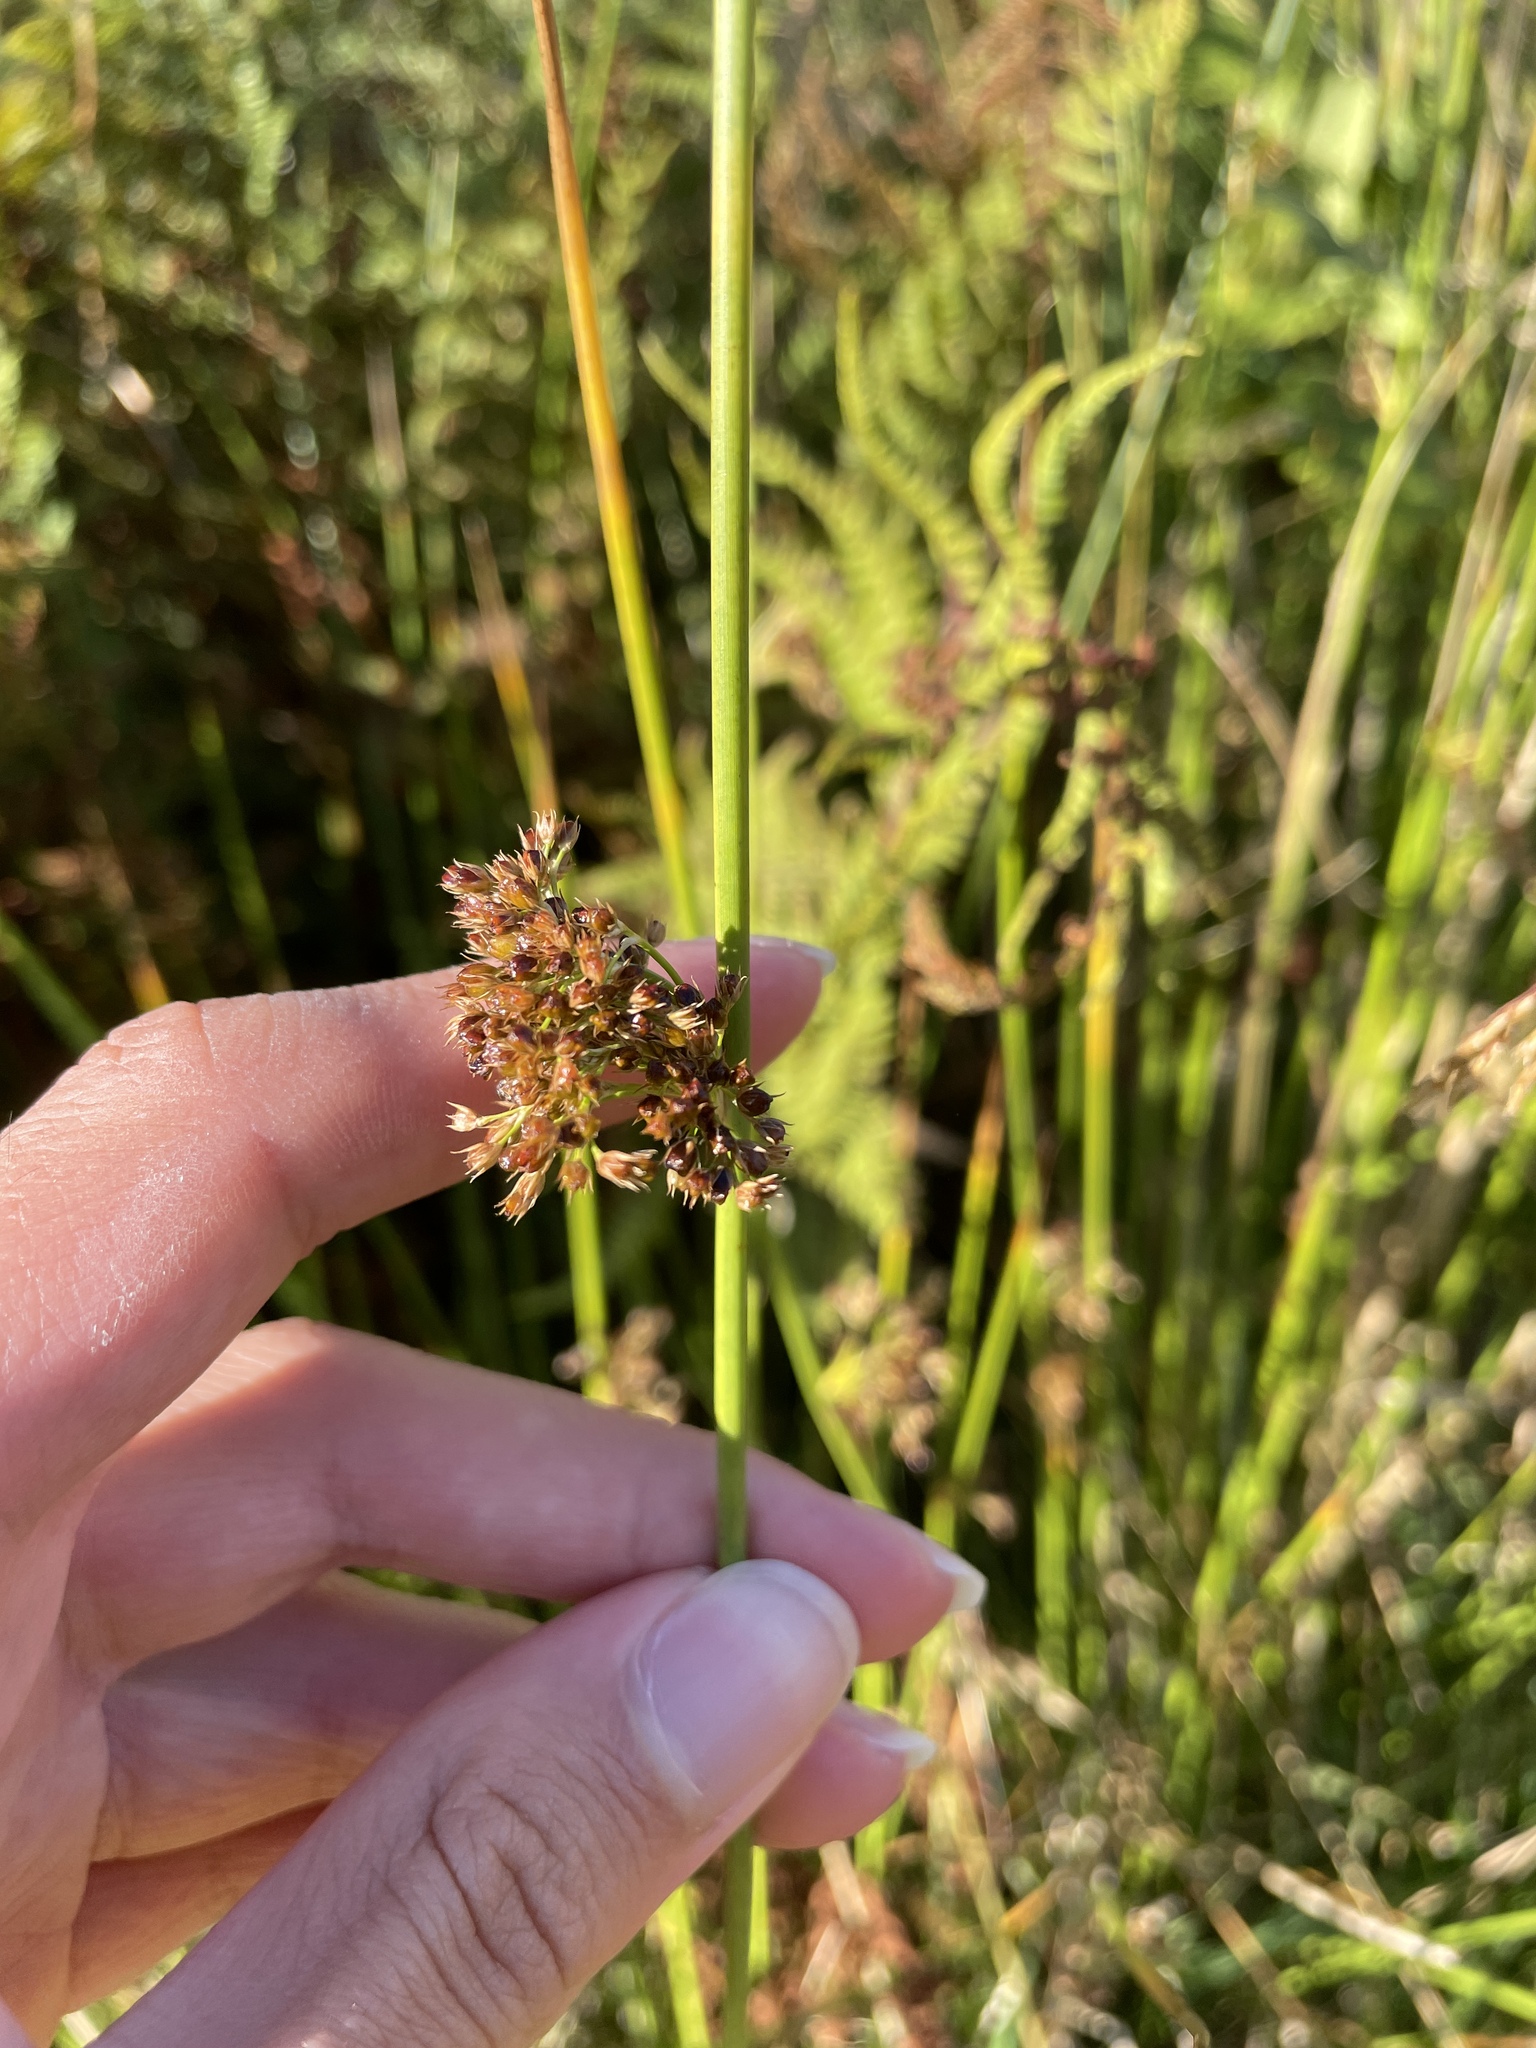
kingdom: Plantae
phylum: Tracheophyta
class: Liliopsida
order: Poales
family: Juncaceae
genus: Juncus
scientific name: Juncus effusus
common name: Soft rush
